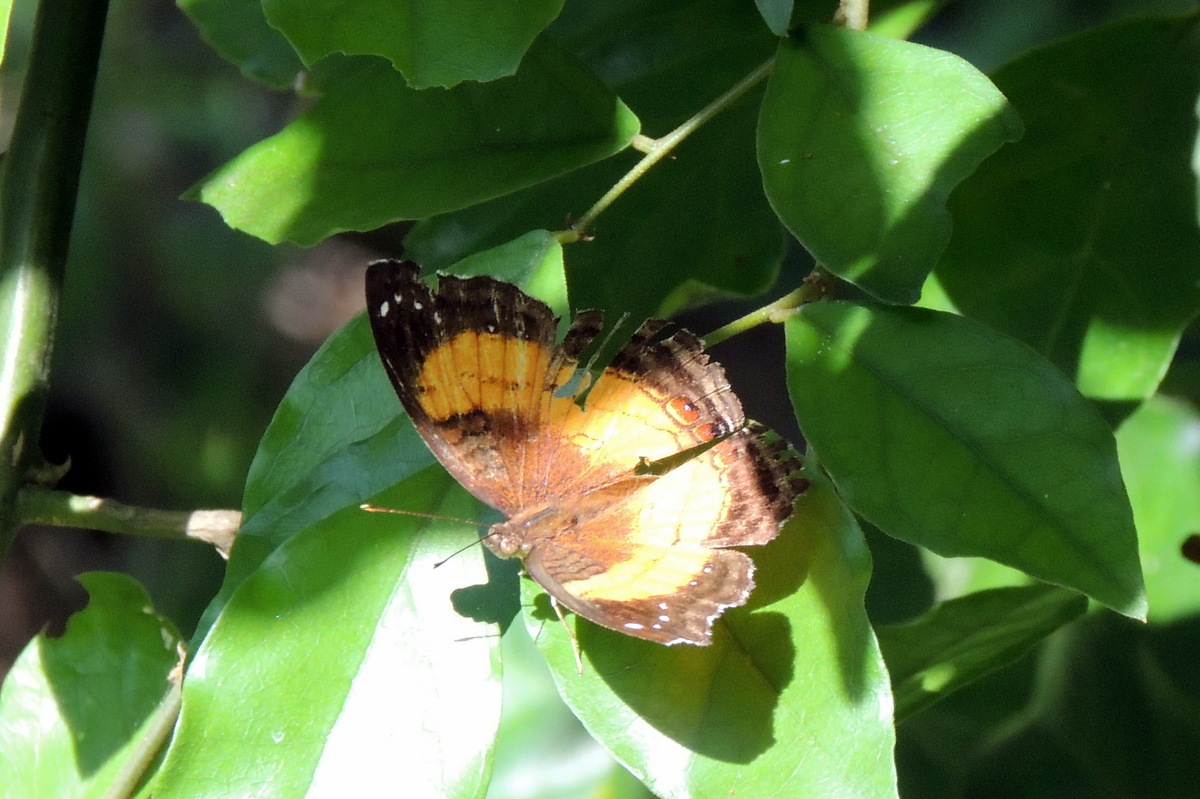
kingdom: Animalia
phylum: Arthropoda
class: Insecta
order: Lepidoptera
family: Nymphalidae
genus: Junonia
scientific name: Junonia terea
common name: Soldier pansy
